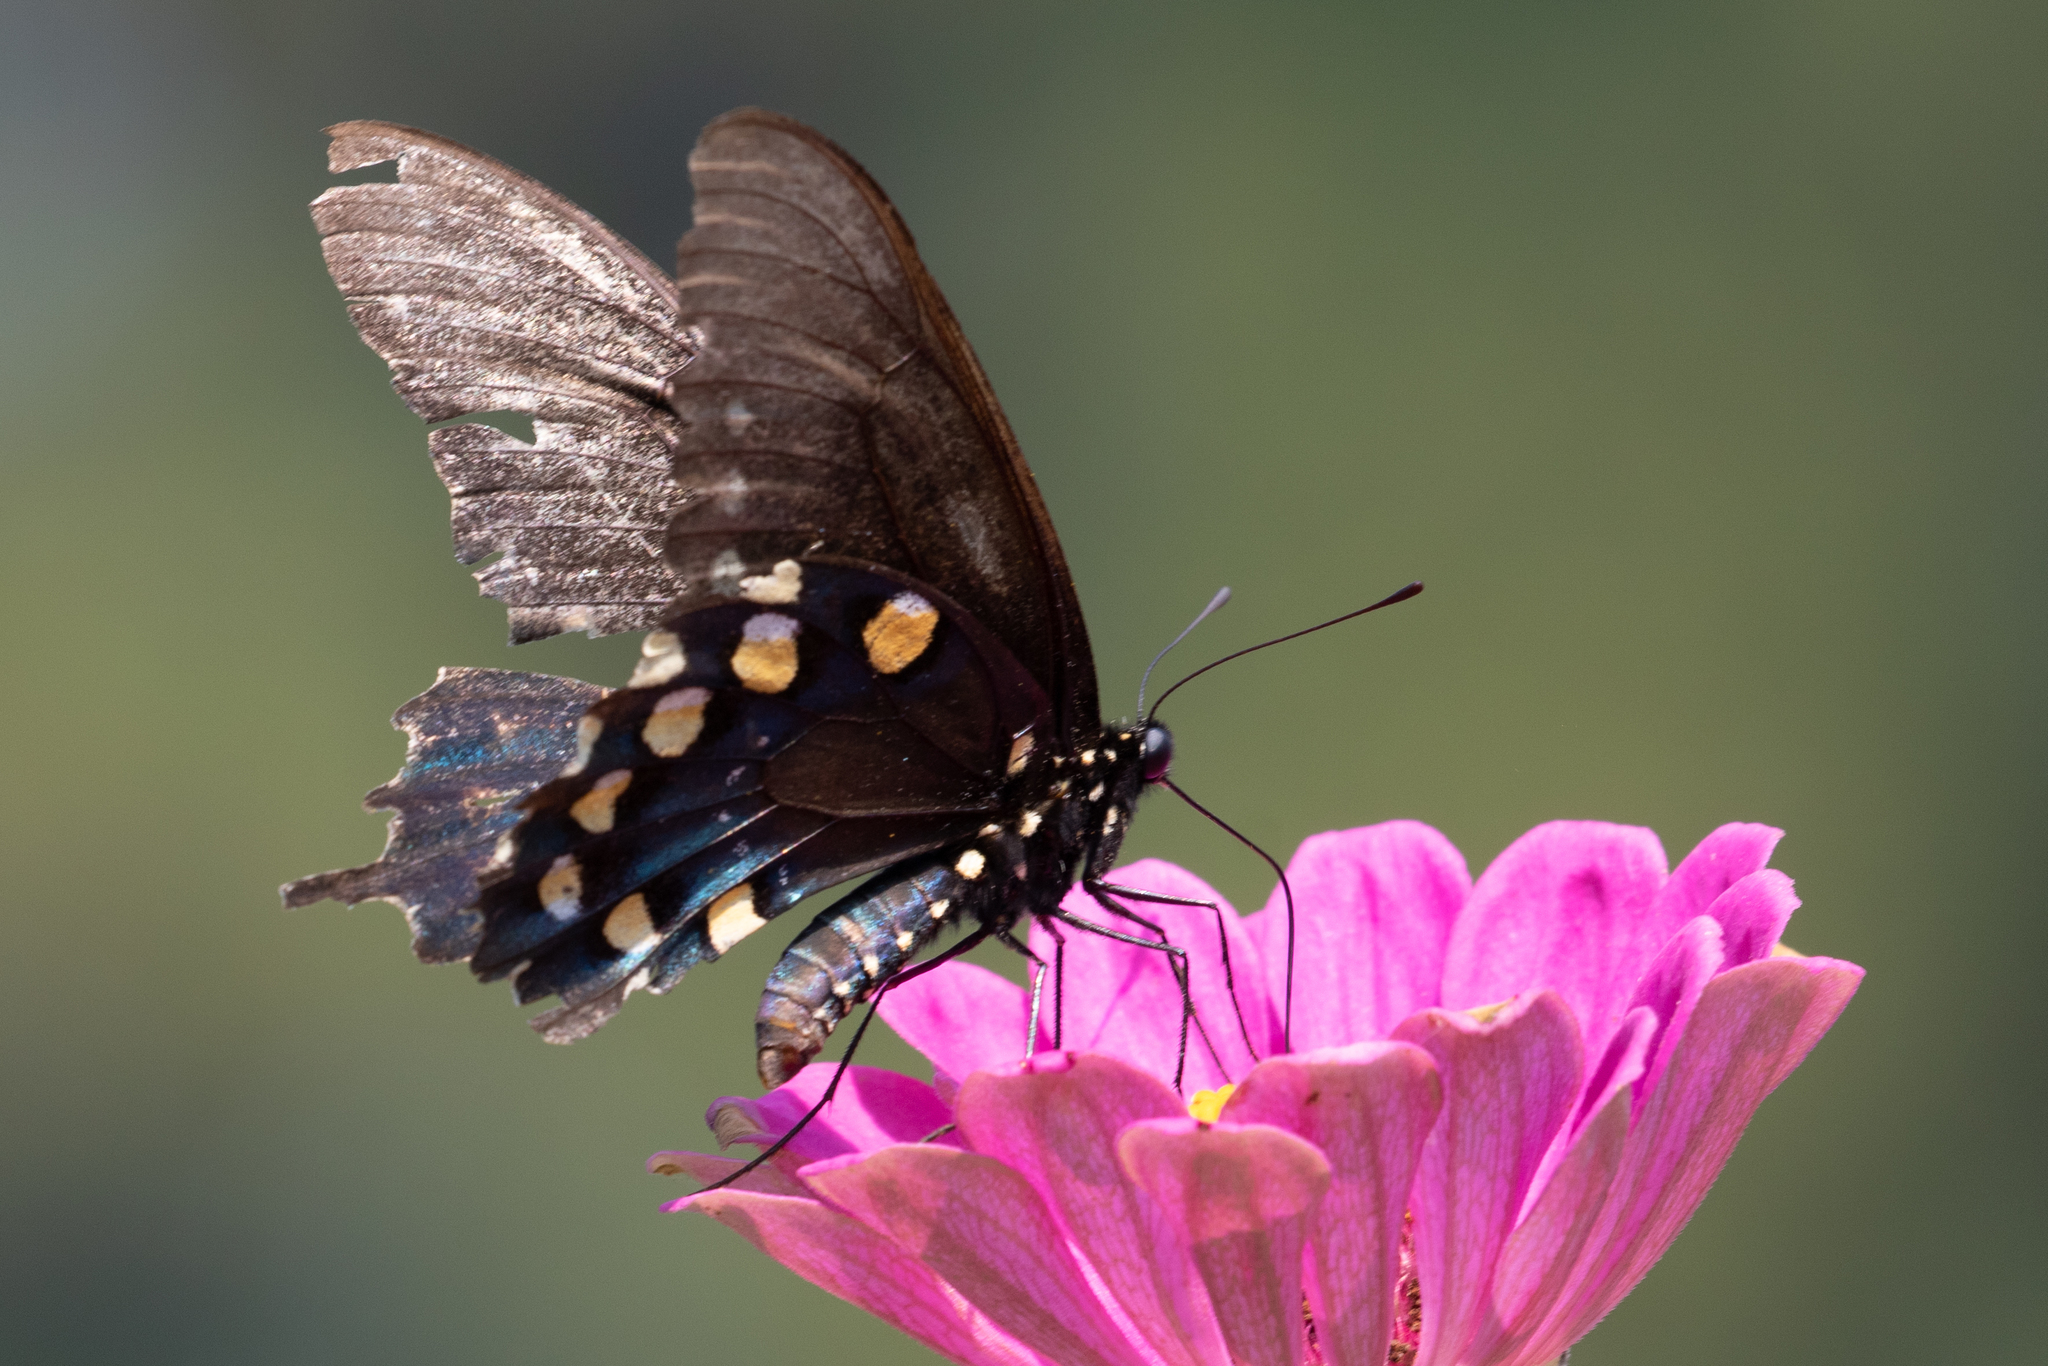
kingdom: Animalia
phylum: Arthropoda
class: Insecta
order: Lepidoptera
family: Papilionidae
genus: Battus
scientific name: Battus philenor
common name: Pipevine swallowtail
